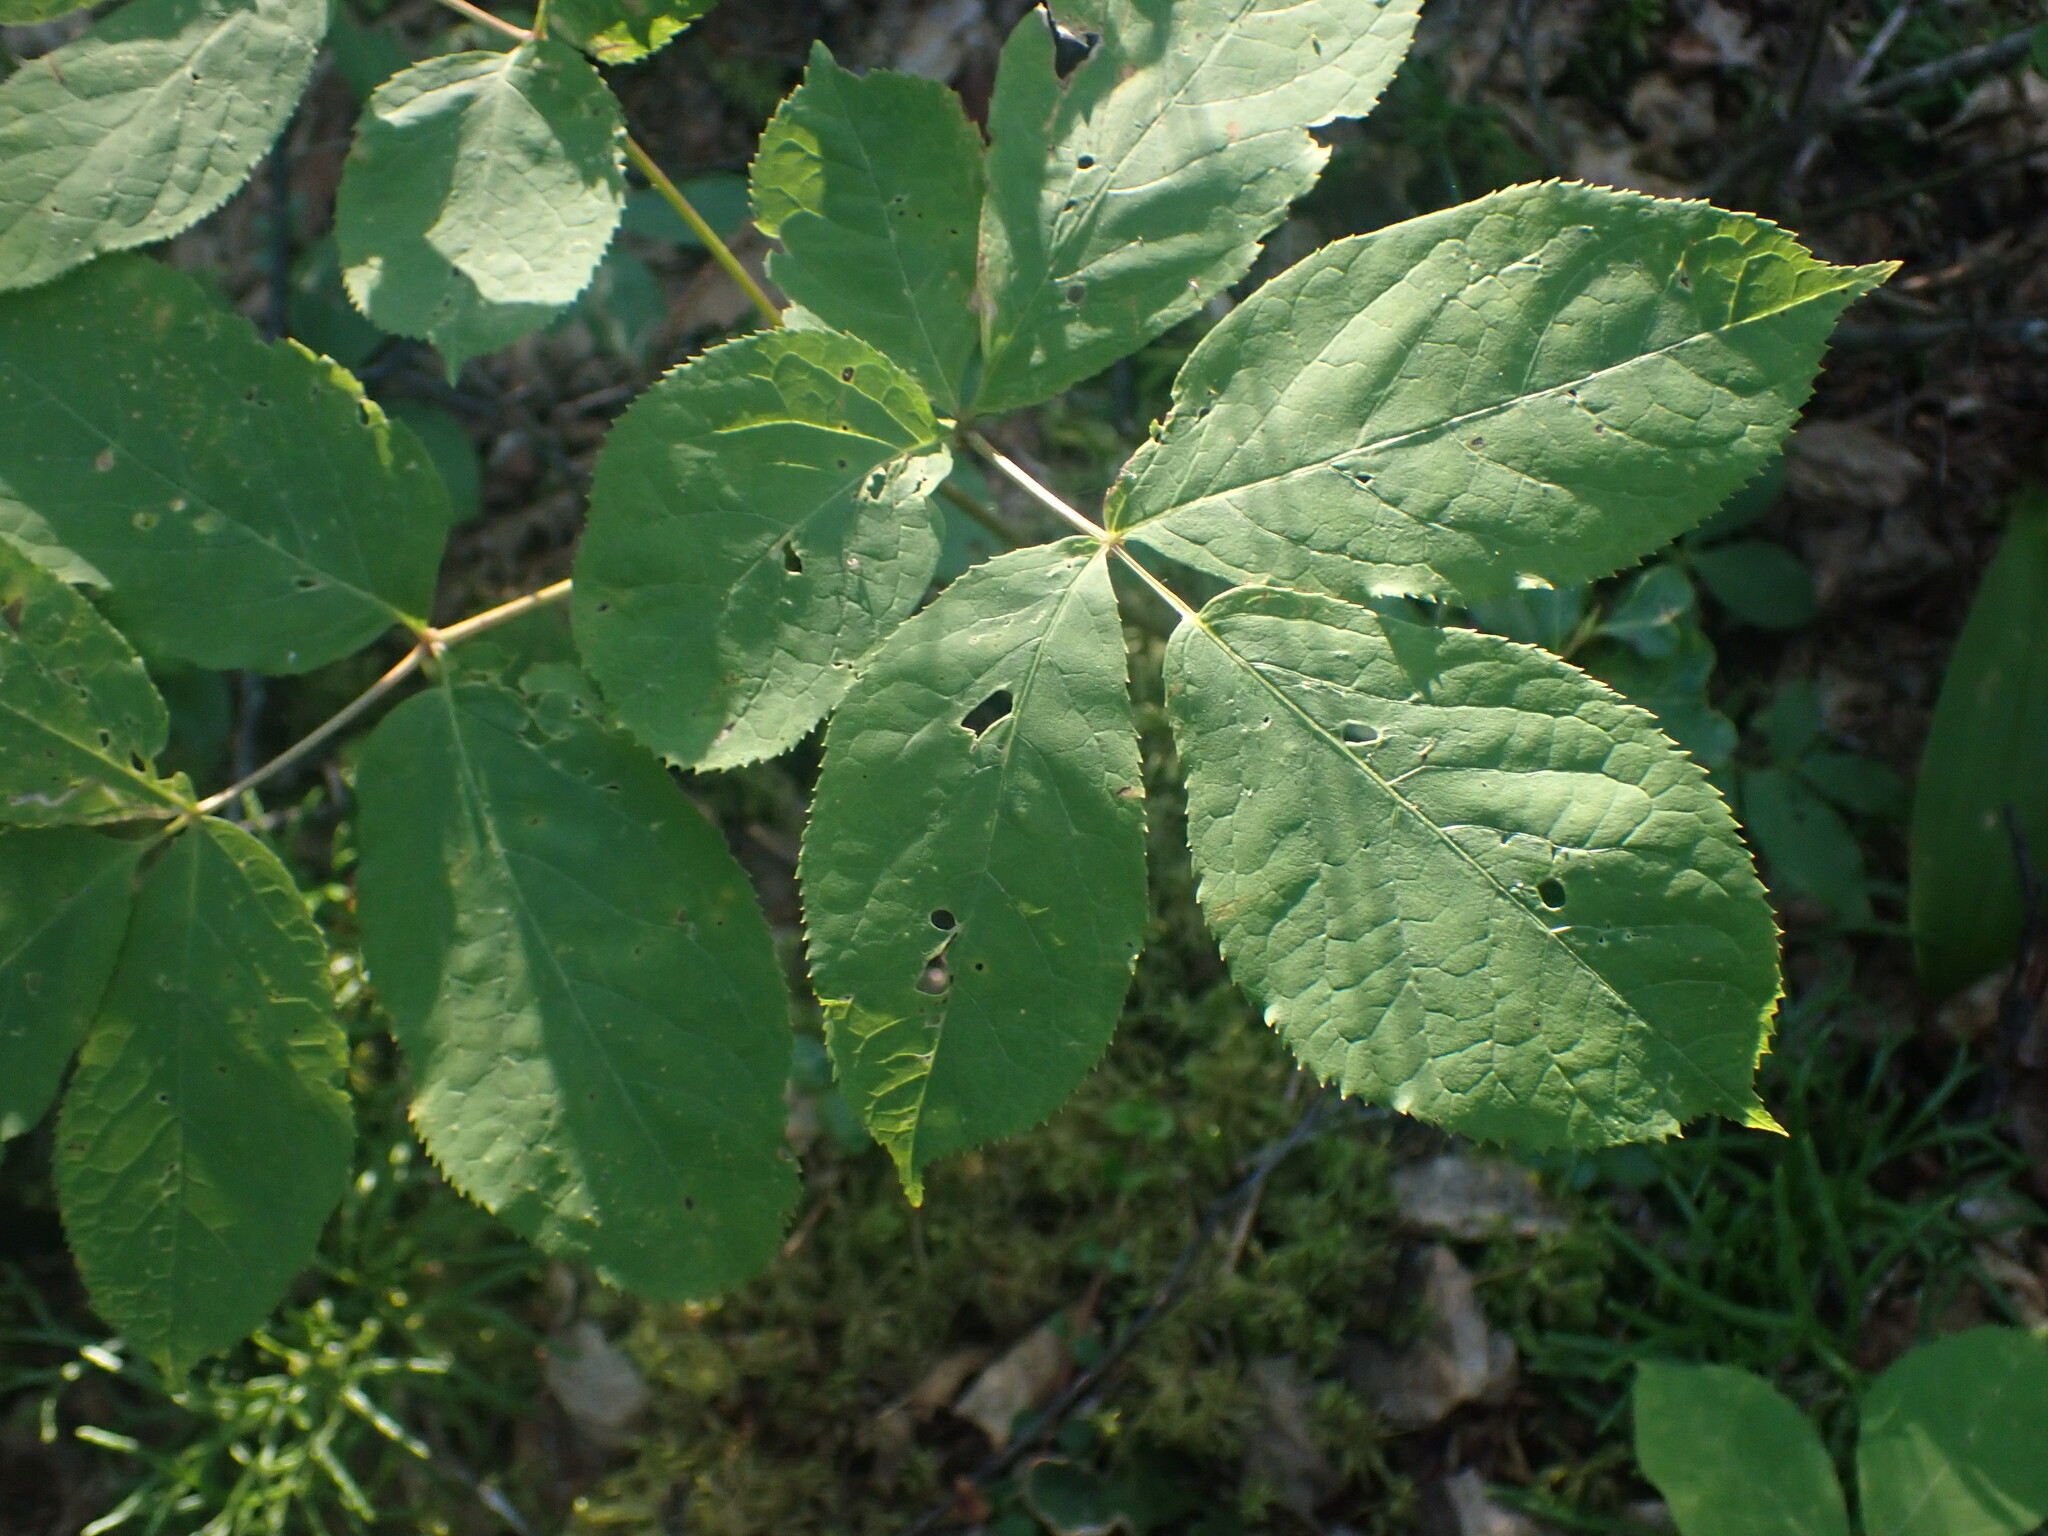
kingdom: Plantae
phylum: Tracheophyta
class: Magnoliopsida
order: Apiales
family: Araliaceae
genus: Aralia
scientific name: Aralia nudicaulis
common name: Wild sarsaparilla
